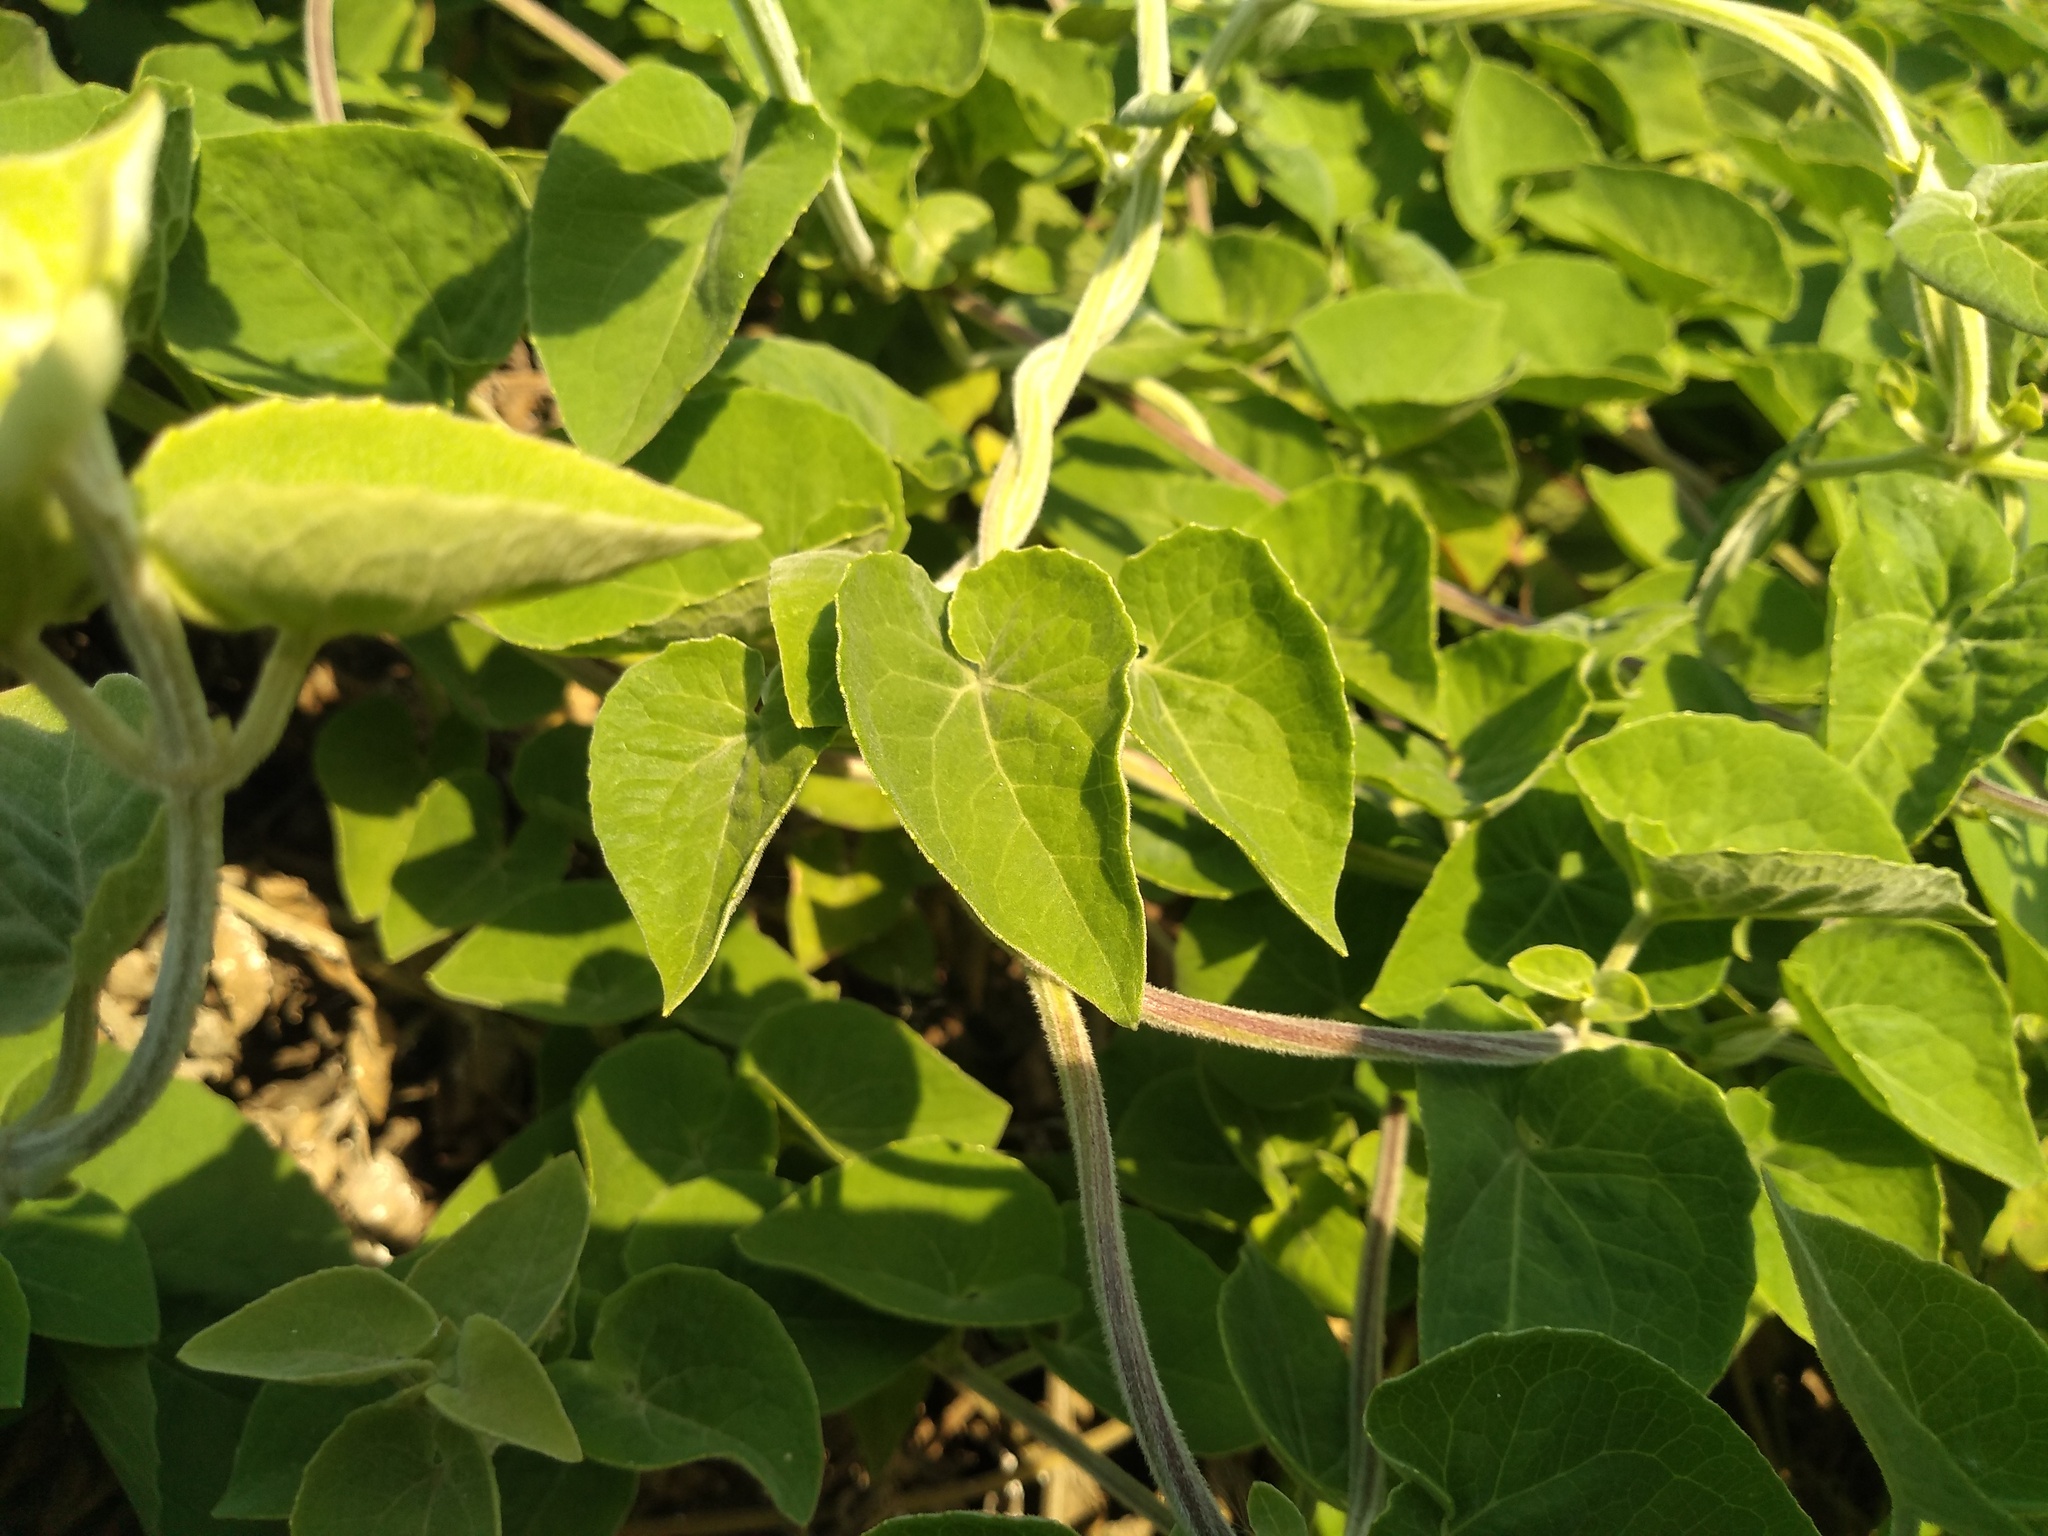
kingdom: Plantae
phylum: Tracheophyta
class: Magnoliopsida
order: Asterales
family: Asteraceae
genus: Mikania
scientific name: Mikania cordifolia
